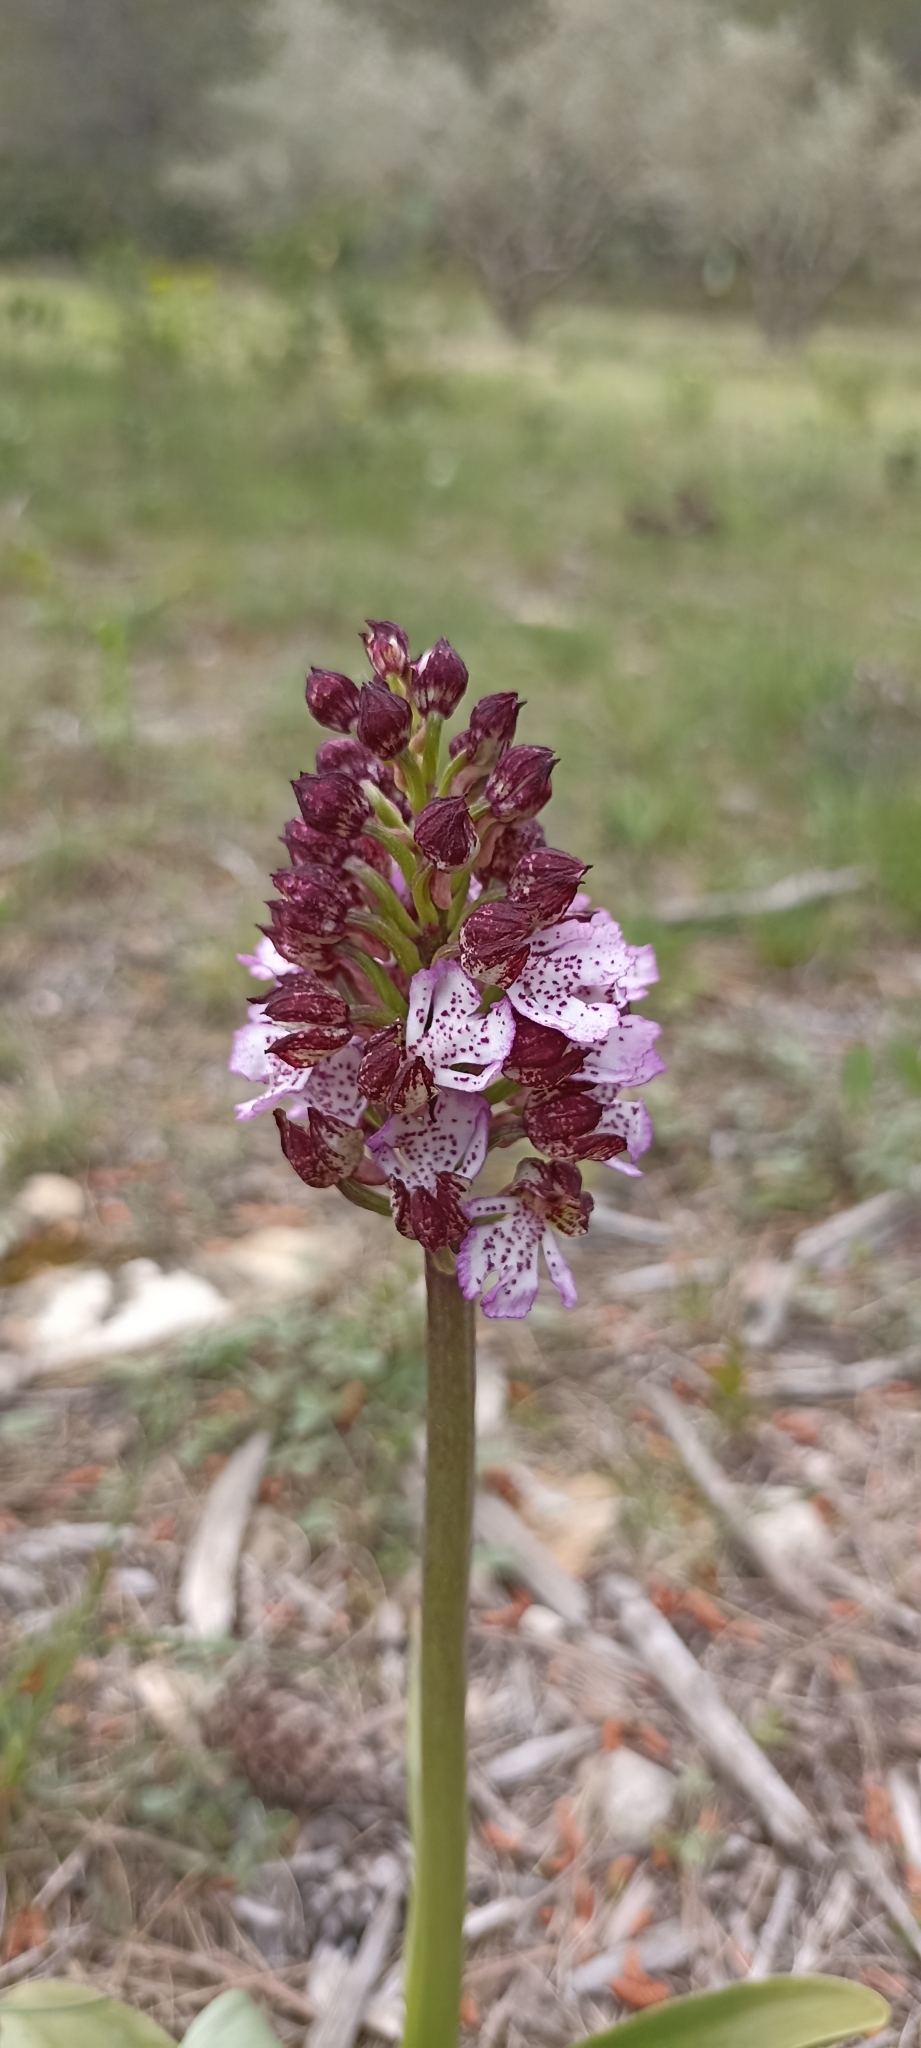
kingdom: Plantae
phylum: Tracheophyta
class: Liliopsida
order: Asparagales
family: Orchidaceae
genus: Orchis
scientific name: Orchis purpurea
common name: Lady orchid
